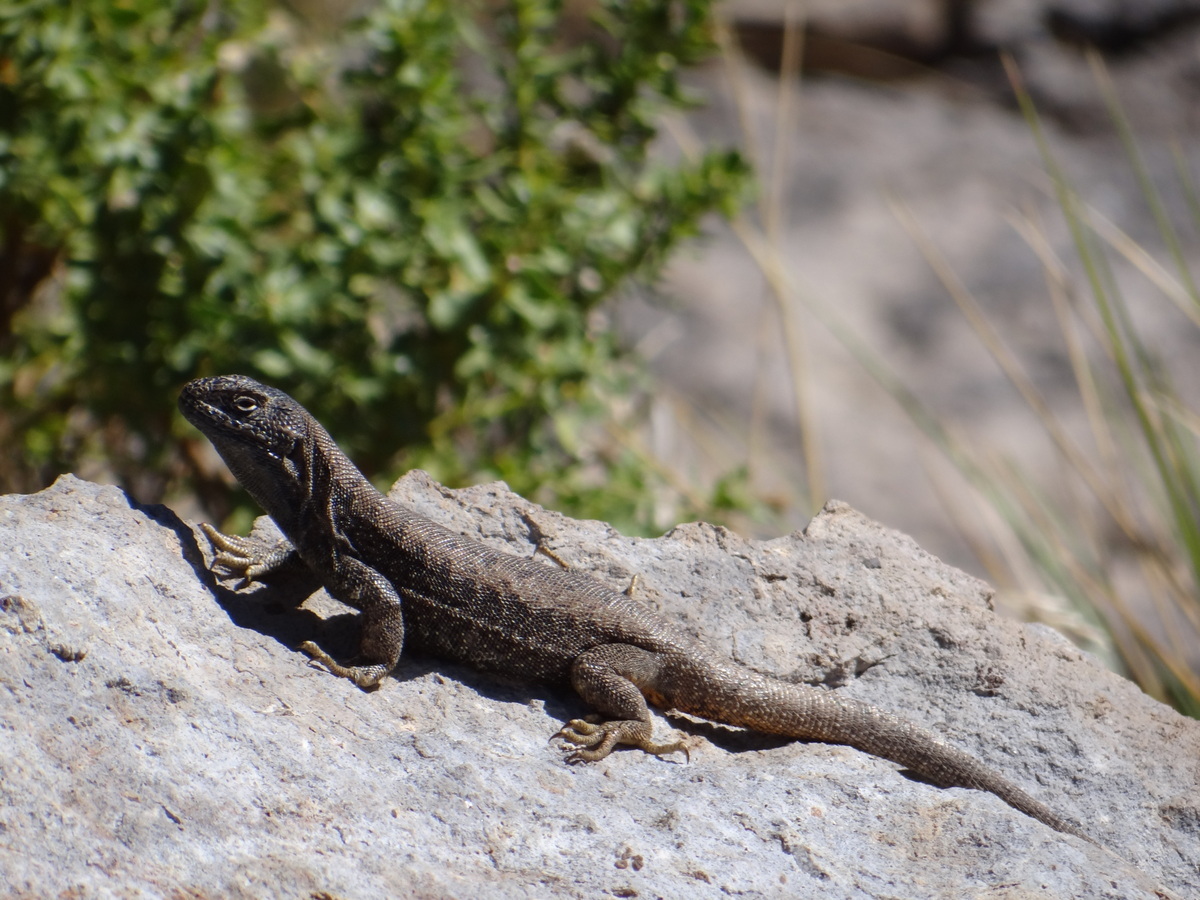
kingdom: Animalia
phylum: Chordata
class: Squamata
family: Liolaemidae
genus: Liolaemus
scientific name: Liolaemus buergeri
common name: Buerger's tree iguana
